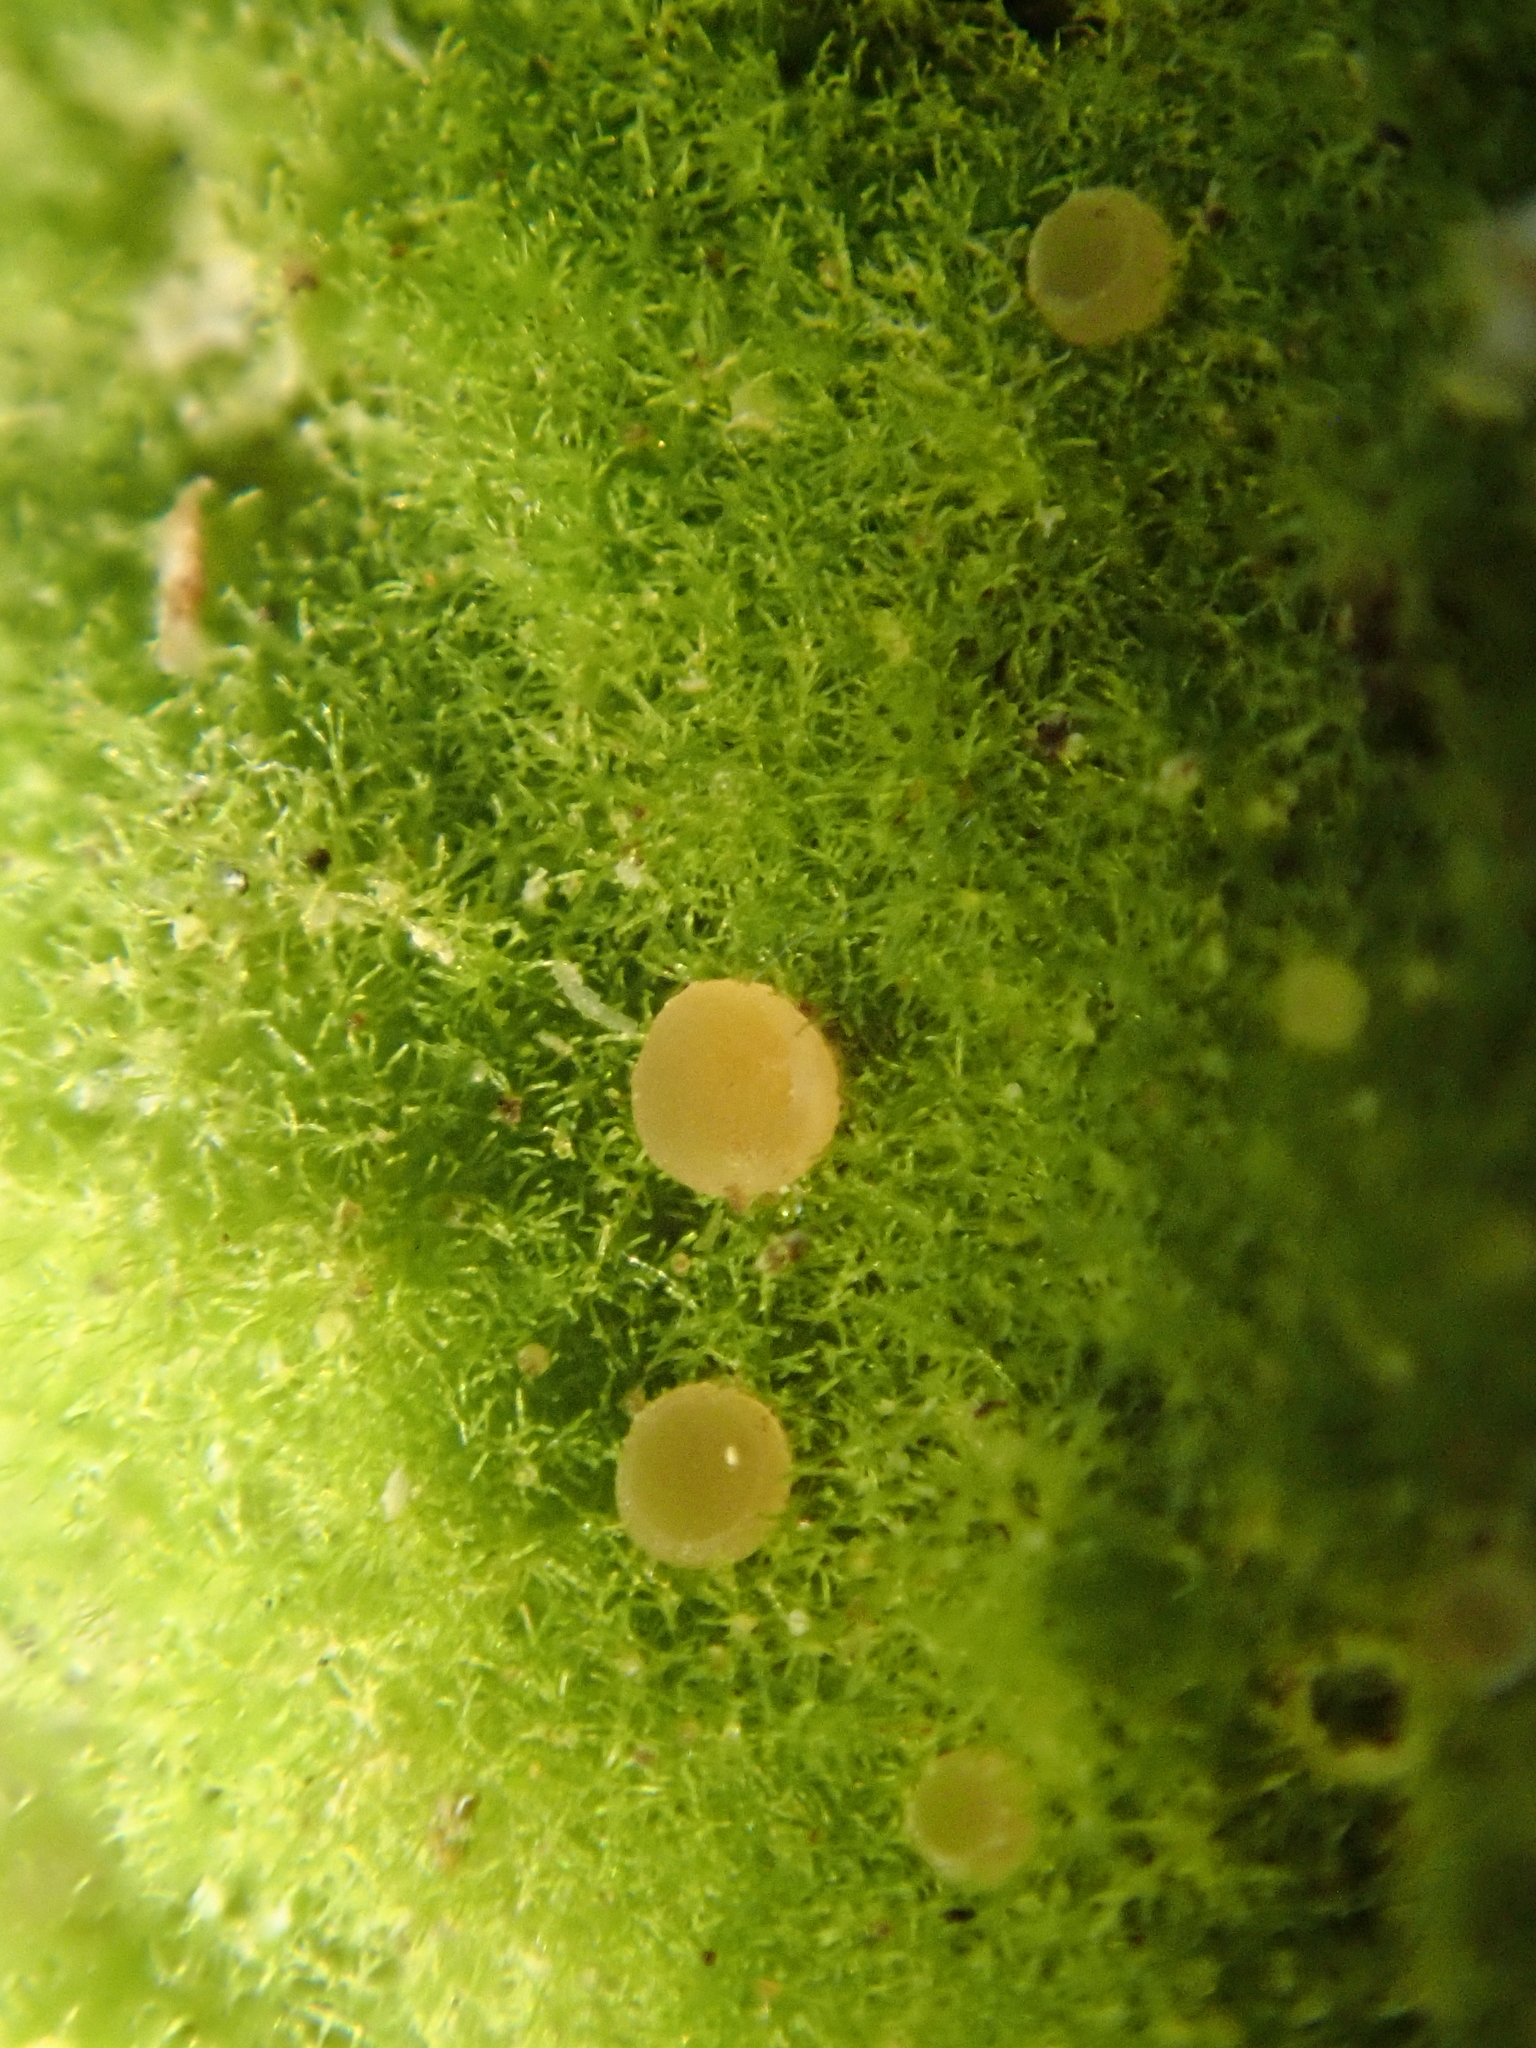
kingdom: Fungi
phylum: Ascomycota
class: Lecanoromycetes
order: Ostropales
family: Coenogoniaceae
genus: Coenogonium
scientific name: Coenogonium implexum
